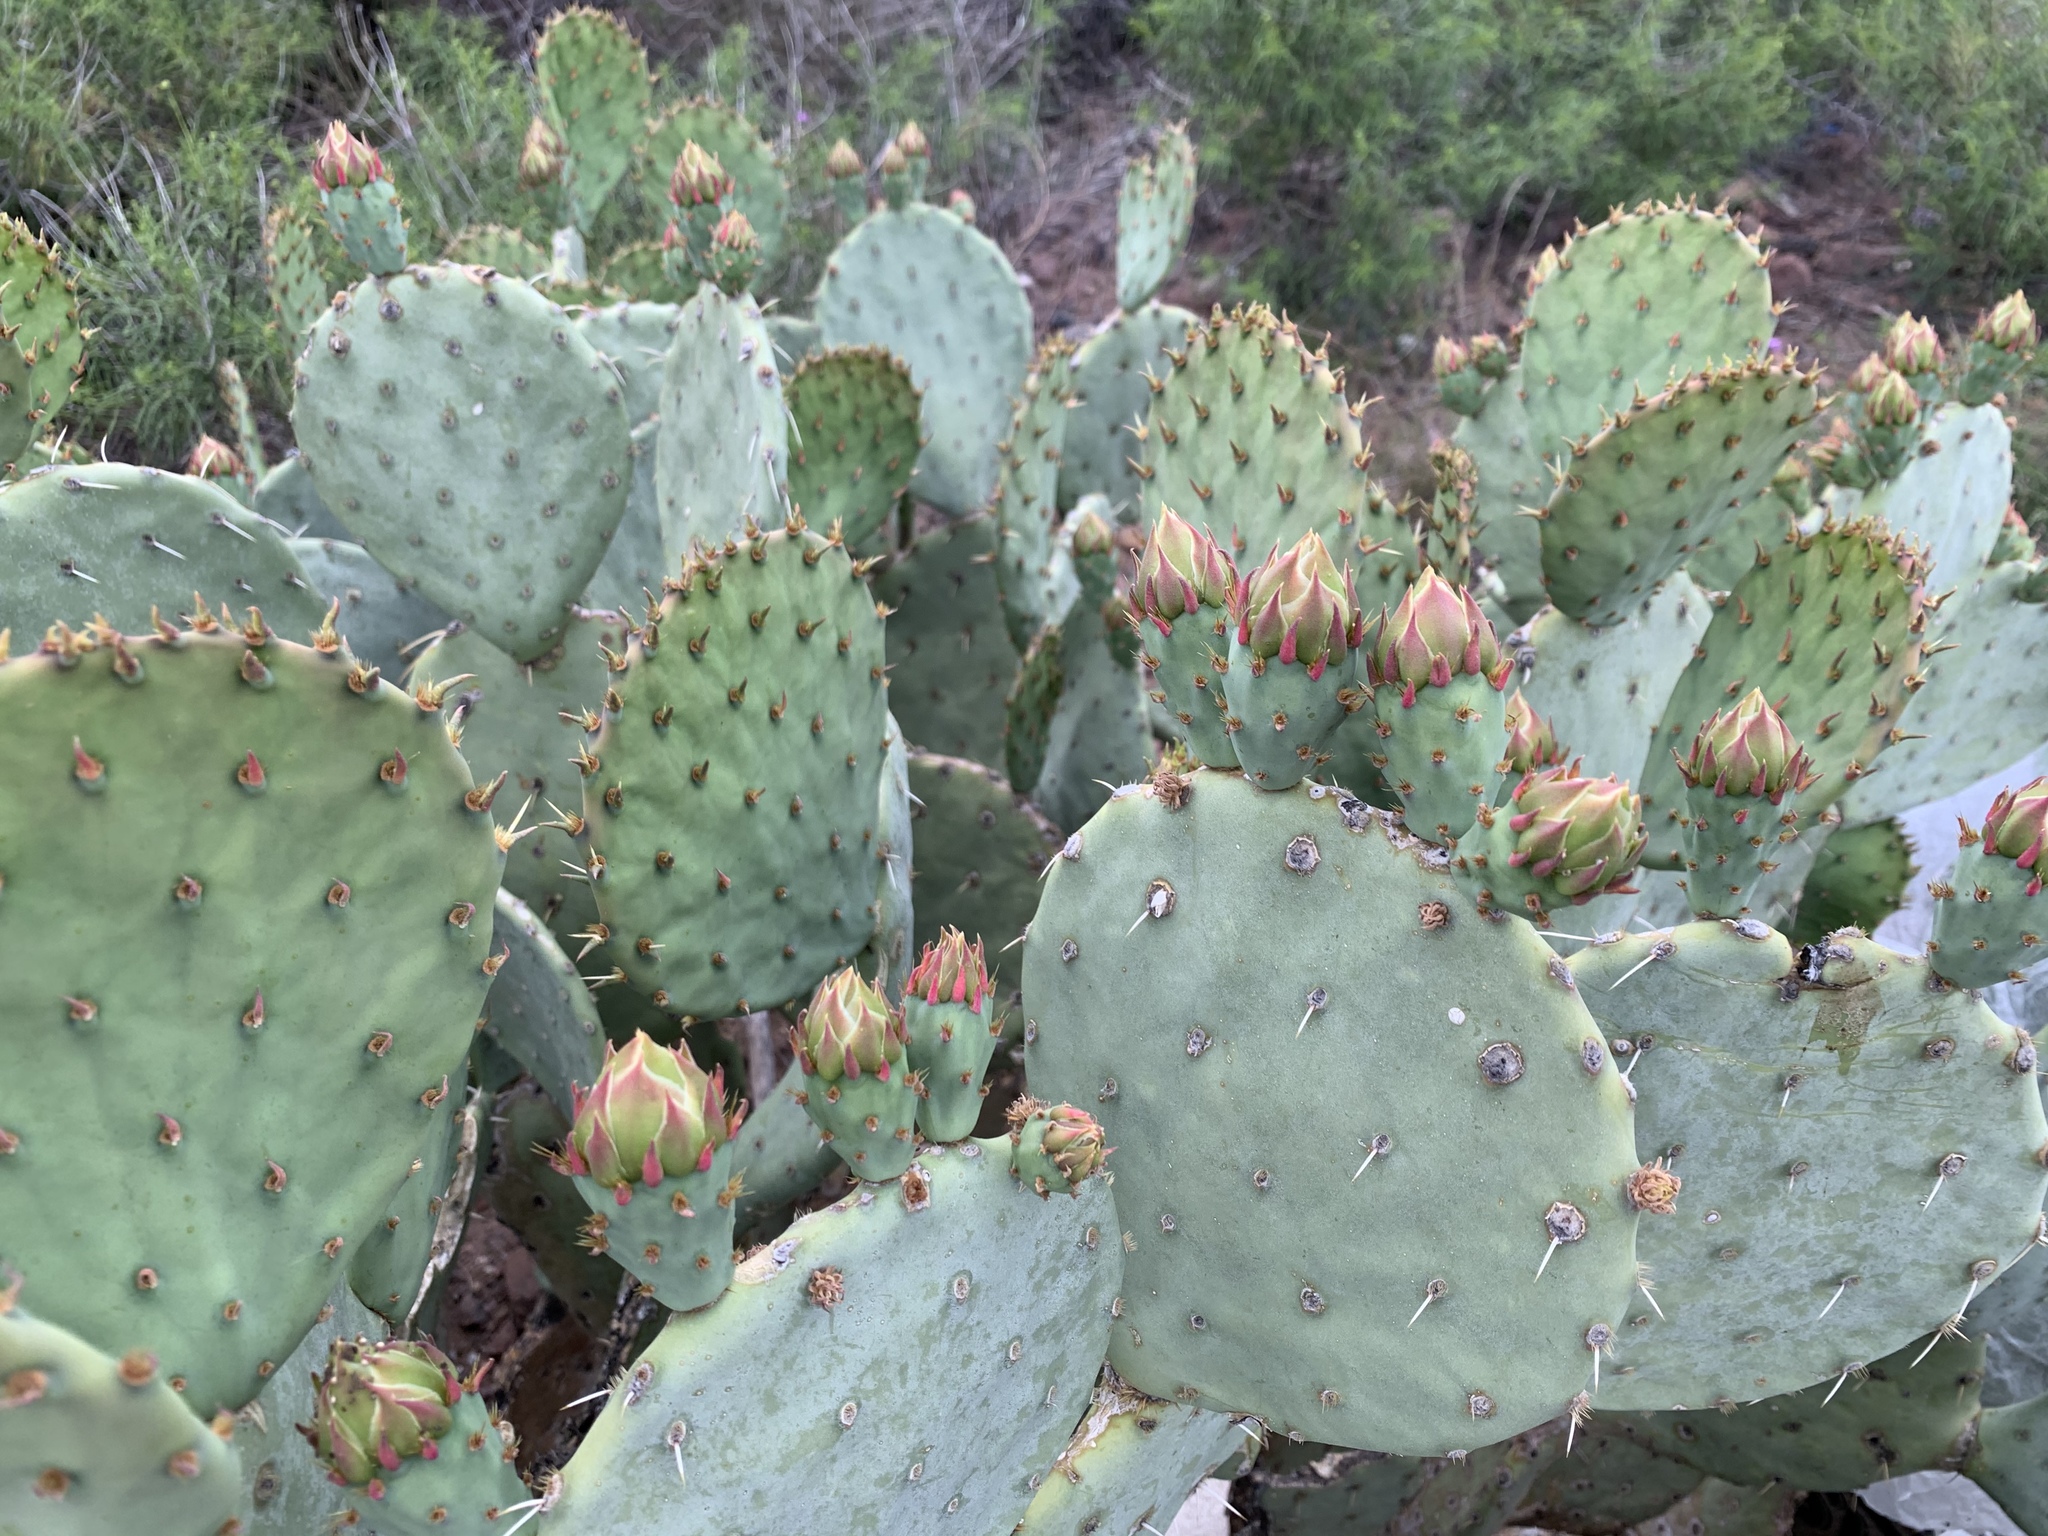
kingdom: Plantae
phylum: Tracheophyta
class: Magnoliopsida
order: Caryophyllales
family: Cactaceae
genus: Opuntia
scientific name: Opuntia engelmannii
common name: Cactus-apple
